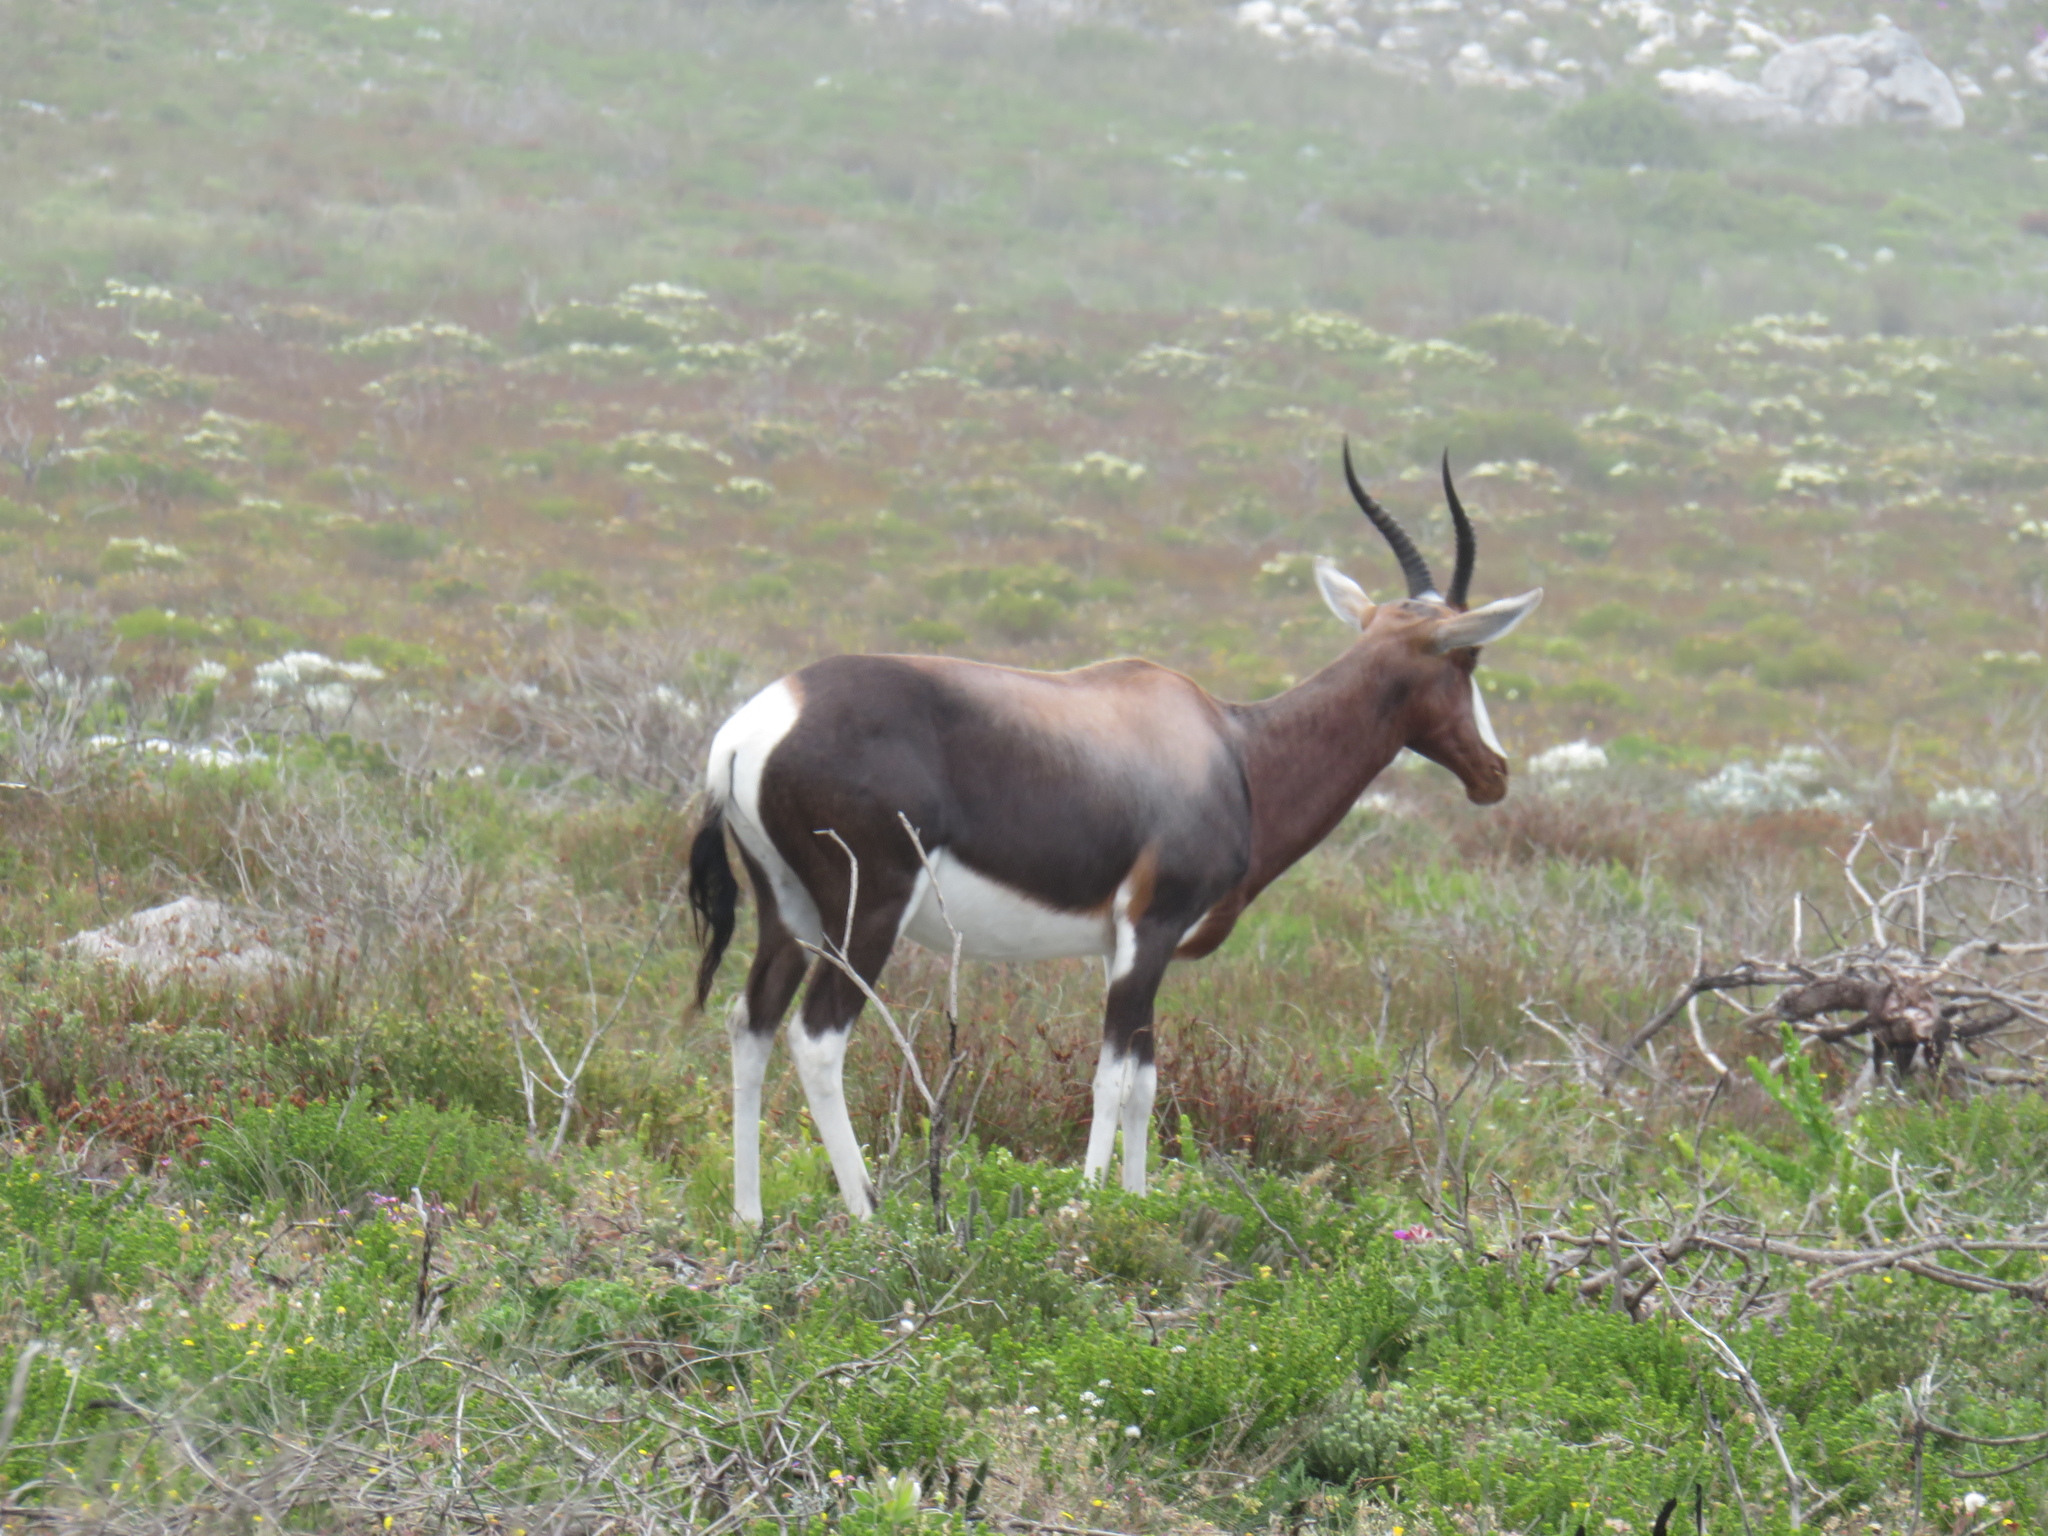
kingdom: Animalia
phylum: Chordata
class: Mammalia
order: Artiodactyla
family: Bovidae
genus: Damaliscus
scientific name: Damaliscus pygargus
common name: Bontebok
